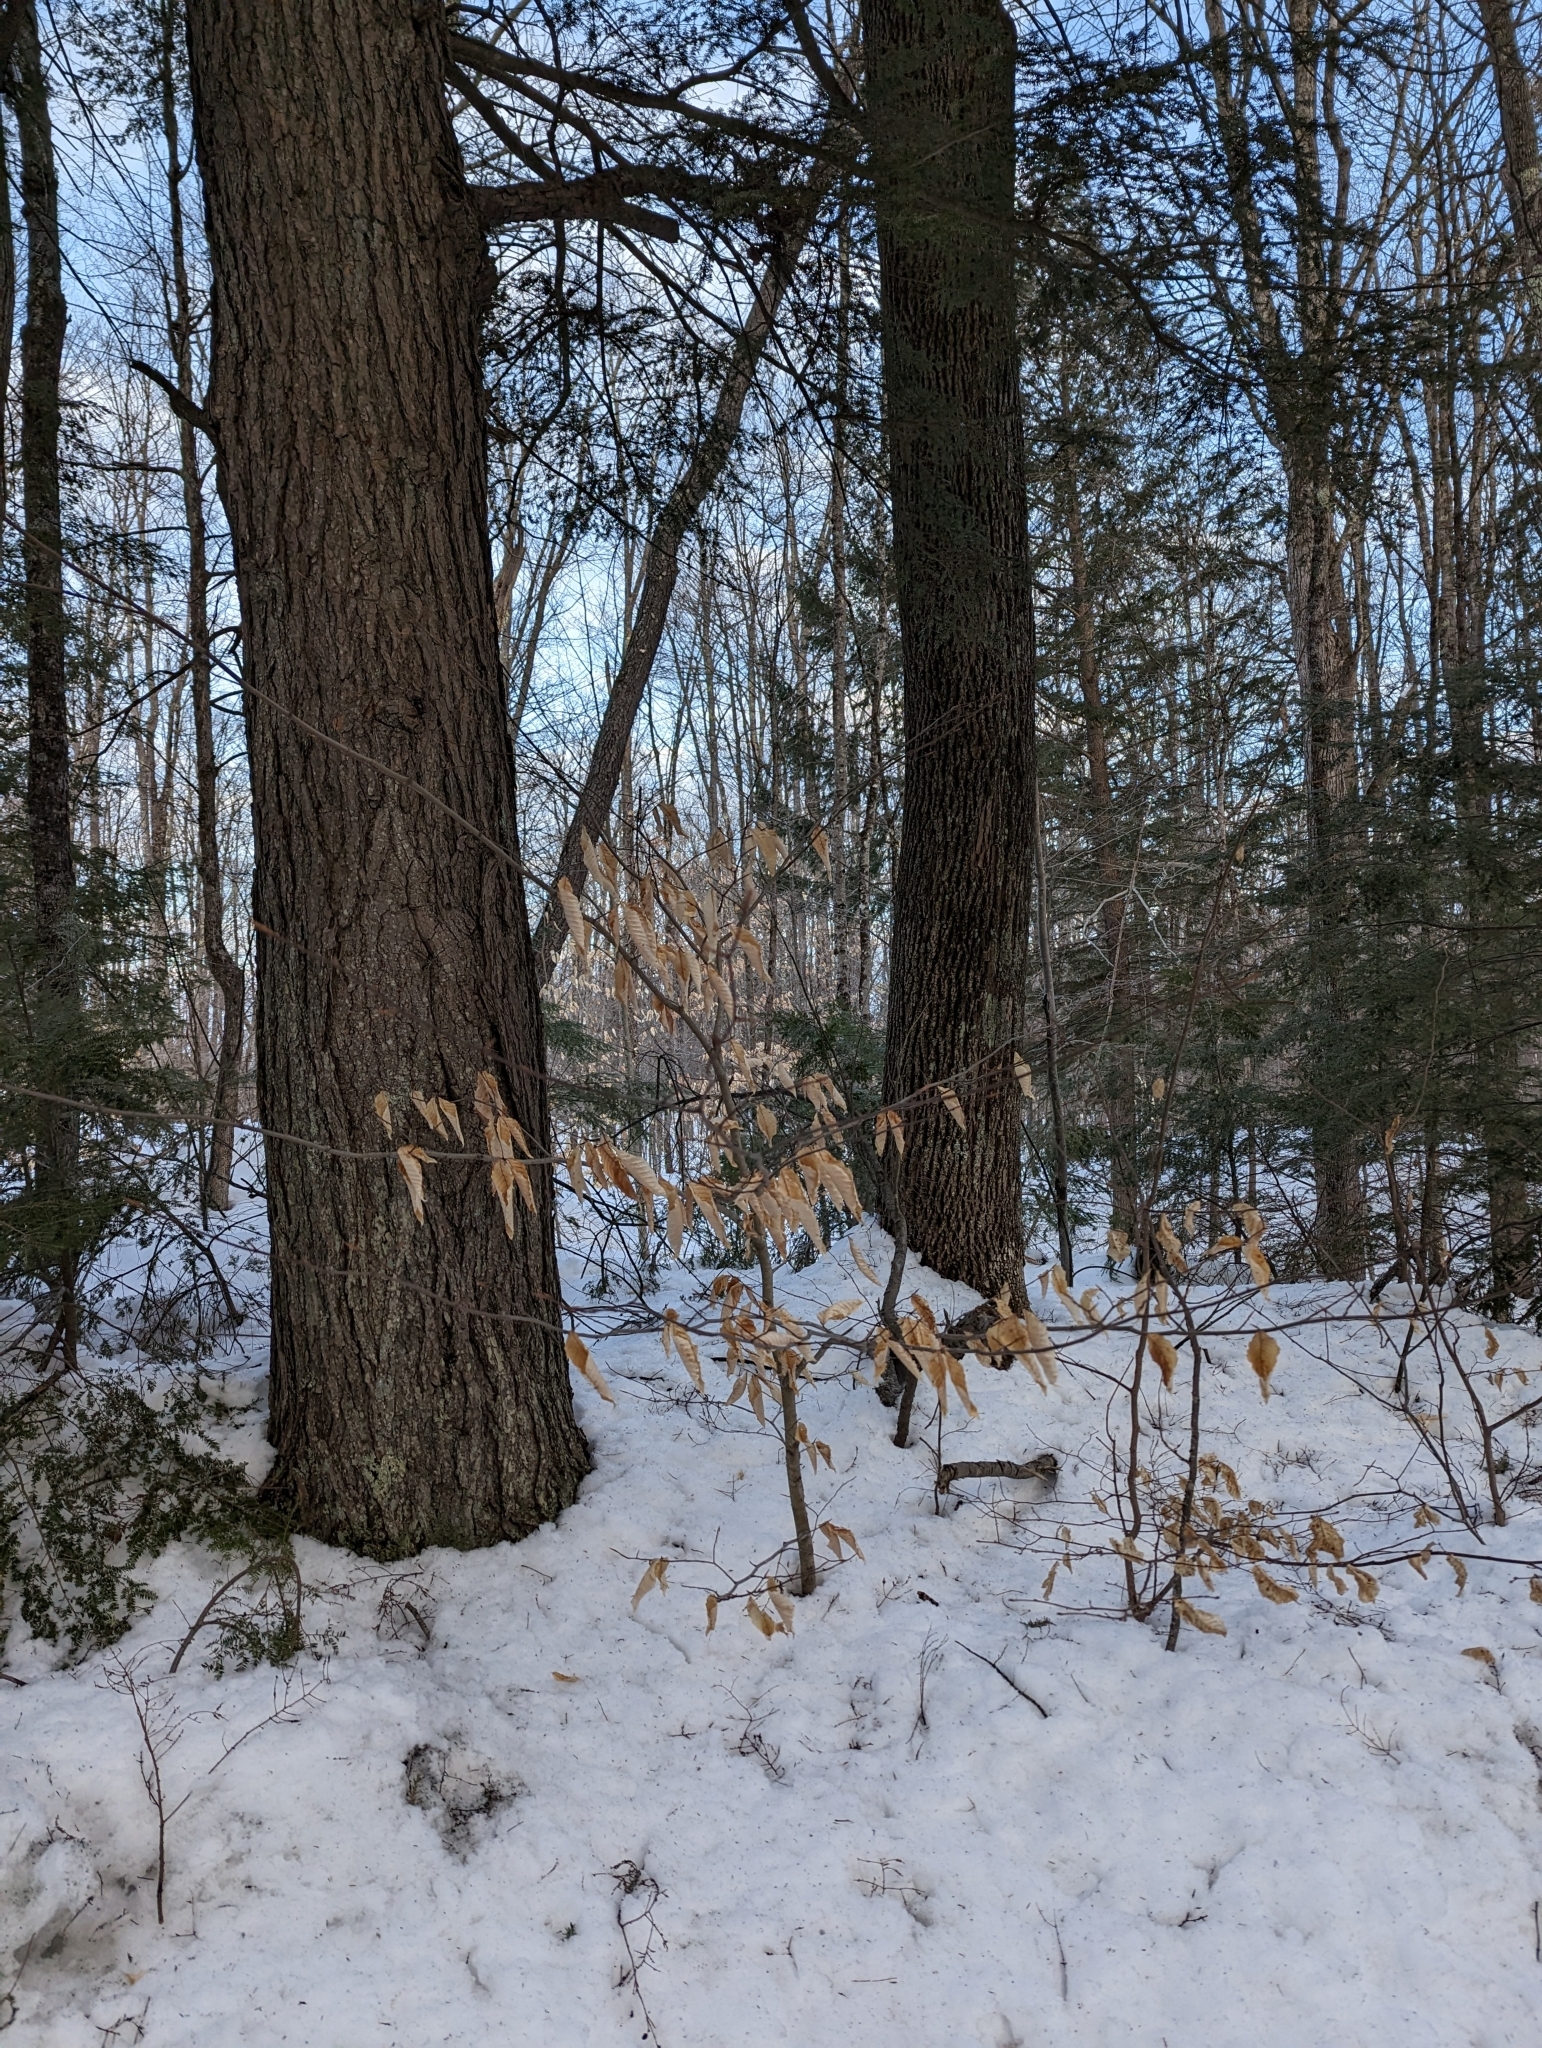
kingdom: Plantae
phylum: Tracheophyta
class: Magnoliopsida
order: Fagales
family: Fagaceae
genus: Fagus
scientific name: Fagus grandifolia
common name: American beech
